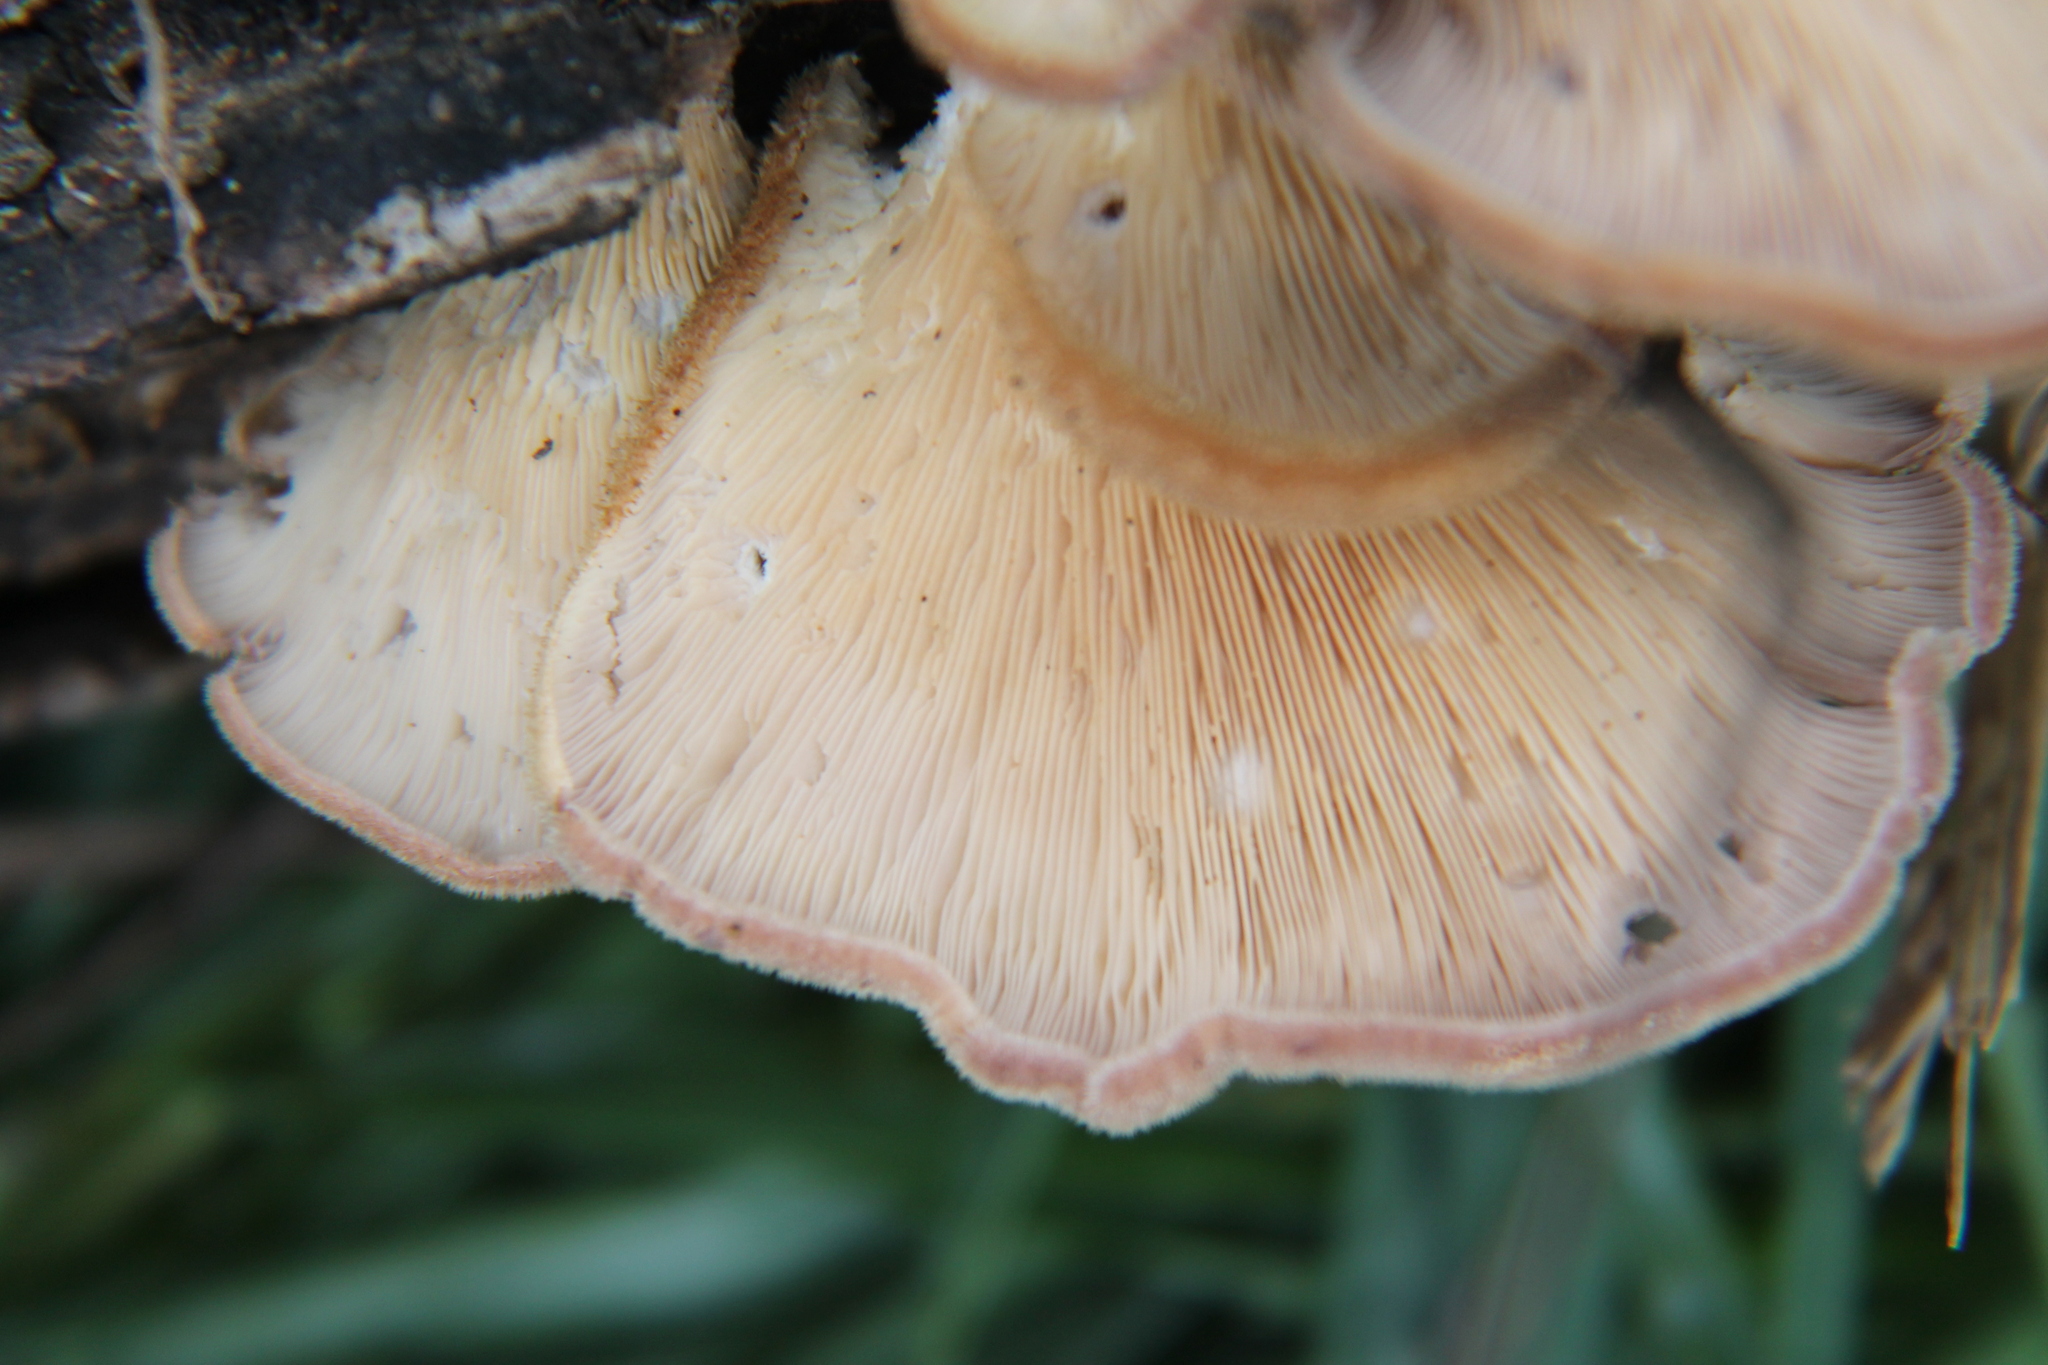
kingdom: Fungi
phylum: Basidiomycota
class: Agaricomycetes
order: Polyporales
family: Panaceae
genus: Panus
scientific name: Panus neostrigosus
